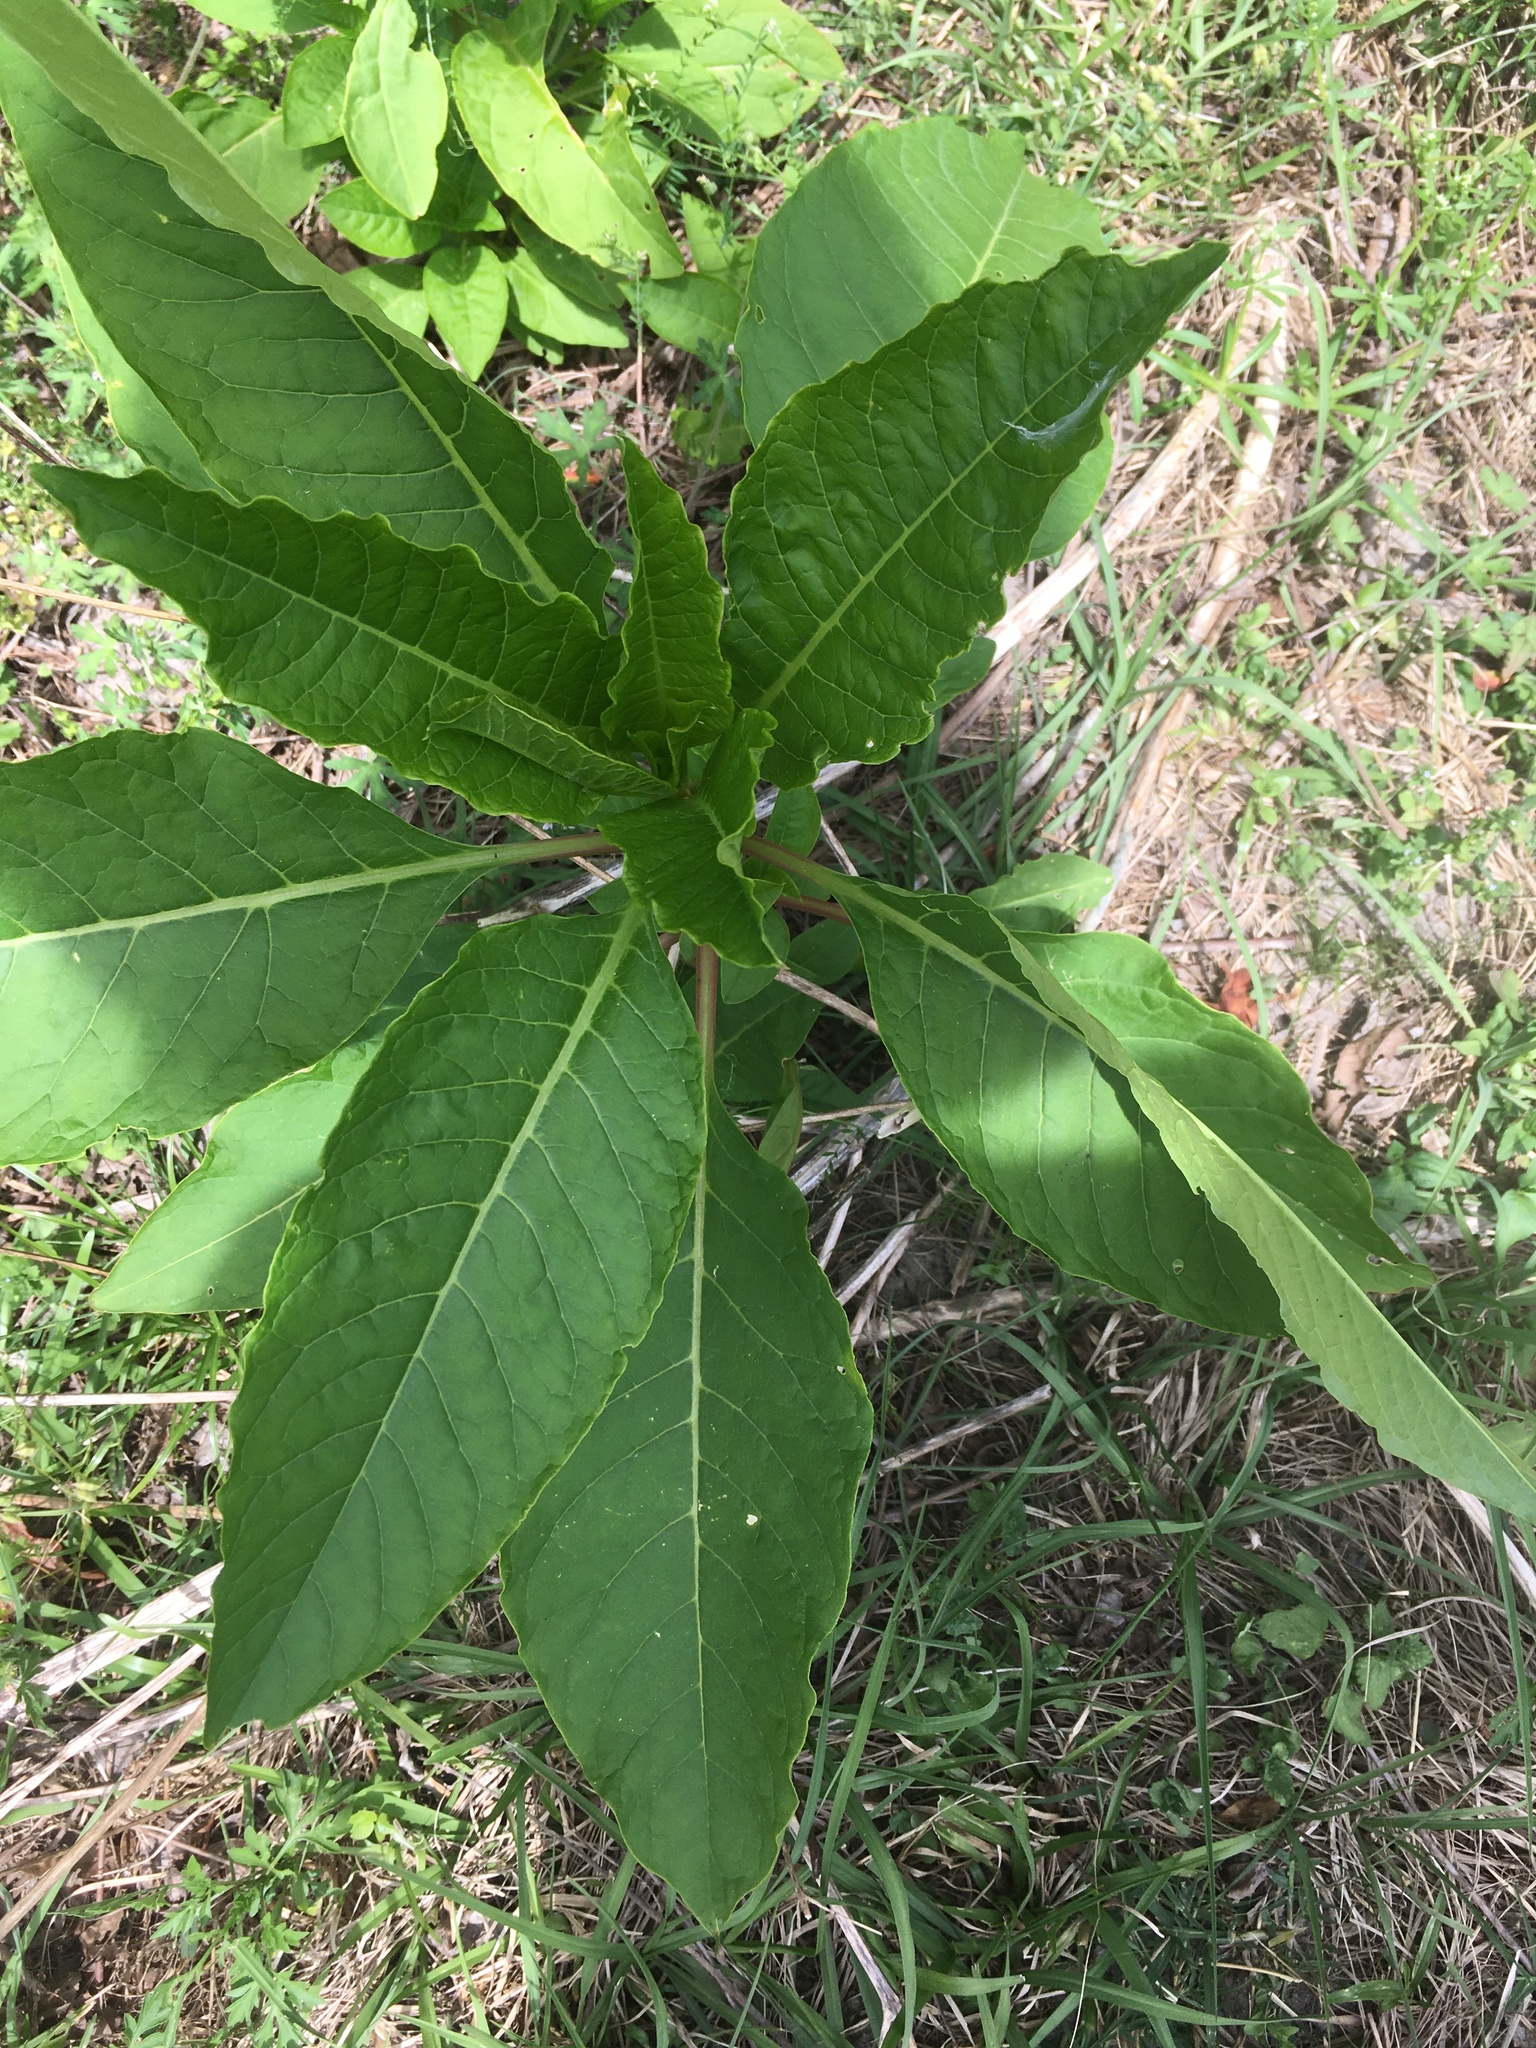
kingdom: Plantae
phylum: Tracheophyta
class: Magnoliopsida
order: Caryophyllales
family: Phytolaccaceae
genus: Phytolacca
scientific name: Phytolacca americana
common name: American pokeweed
